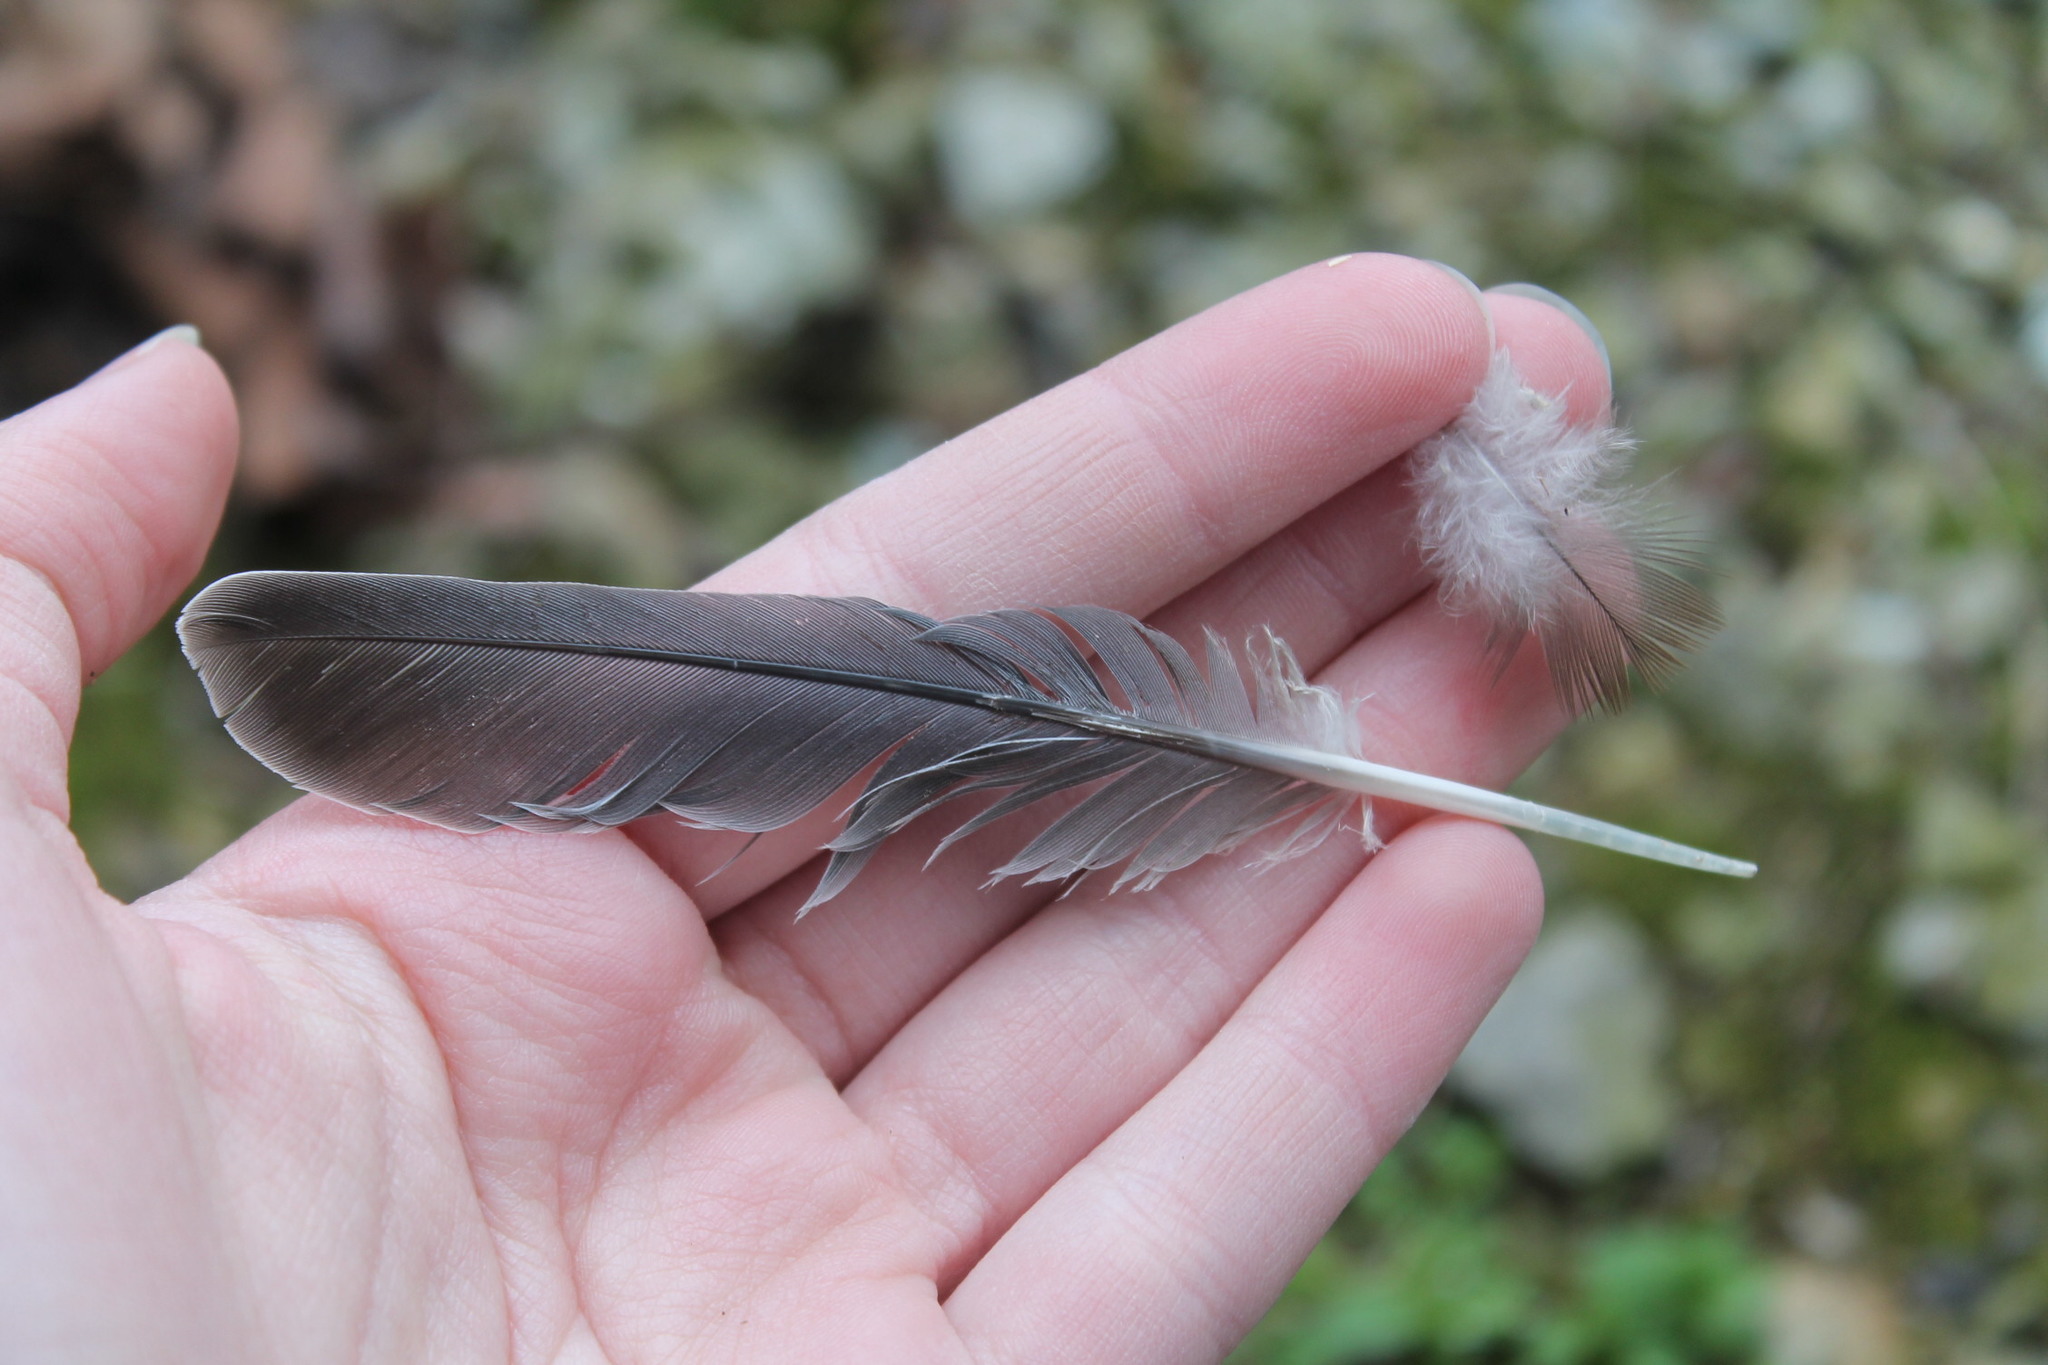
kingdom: Animalia
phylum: Chordata
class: Aves
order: Columbiformes
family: Columbidae
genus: Zenaida
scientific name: Zenaida macroura
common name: Mourning dove
